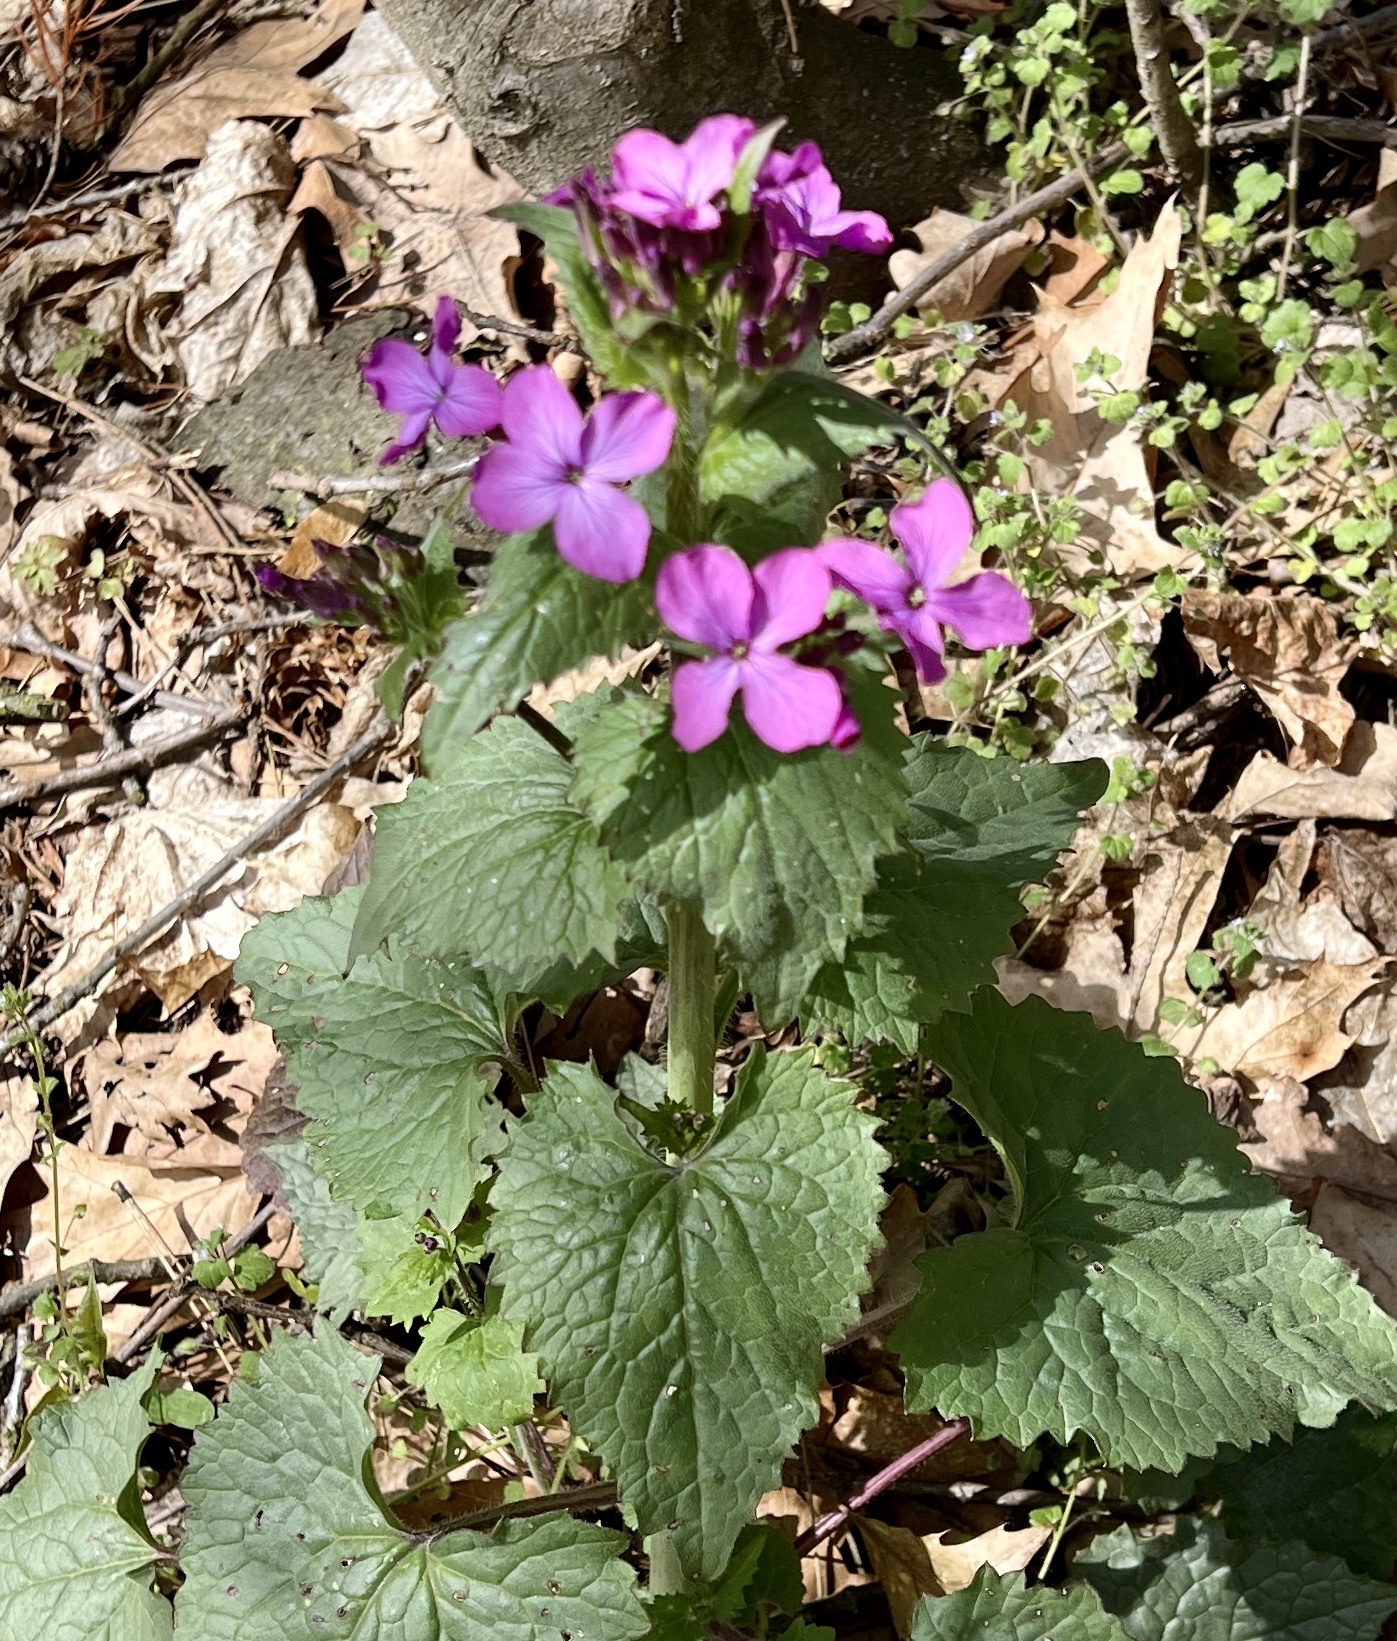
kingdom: Plantae
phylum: Tracheophyta
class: Magnoliopsida
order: Brassicales
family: Brassicaceae
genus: Lunaria
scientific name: Lunaria annua
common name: Honesty
